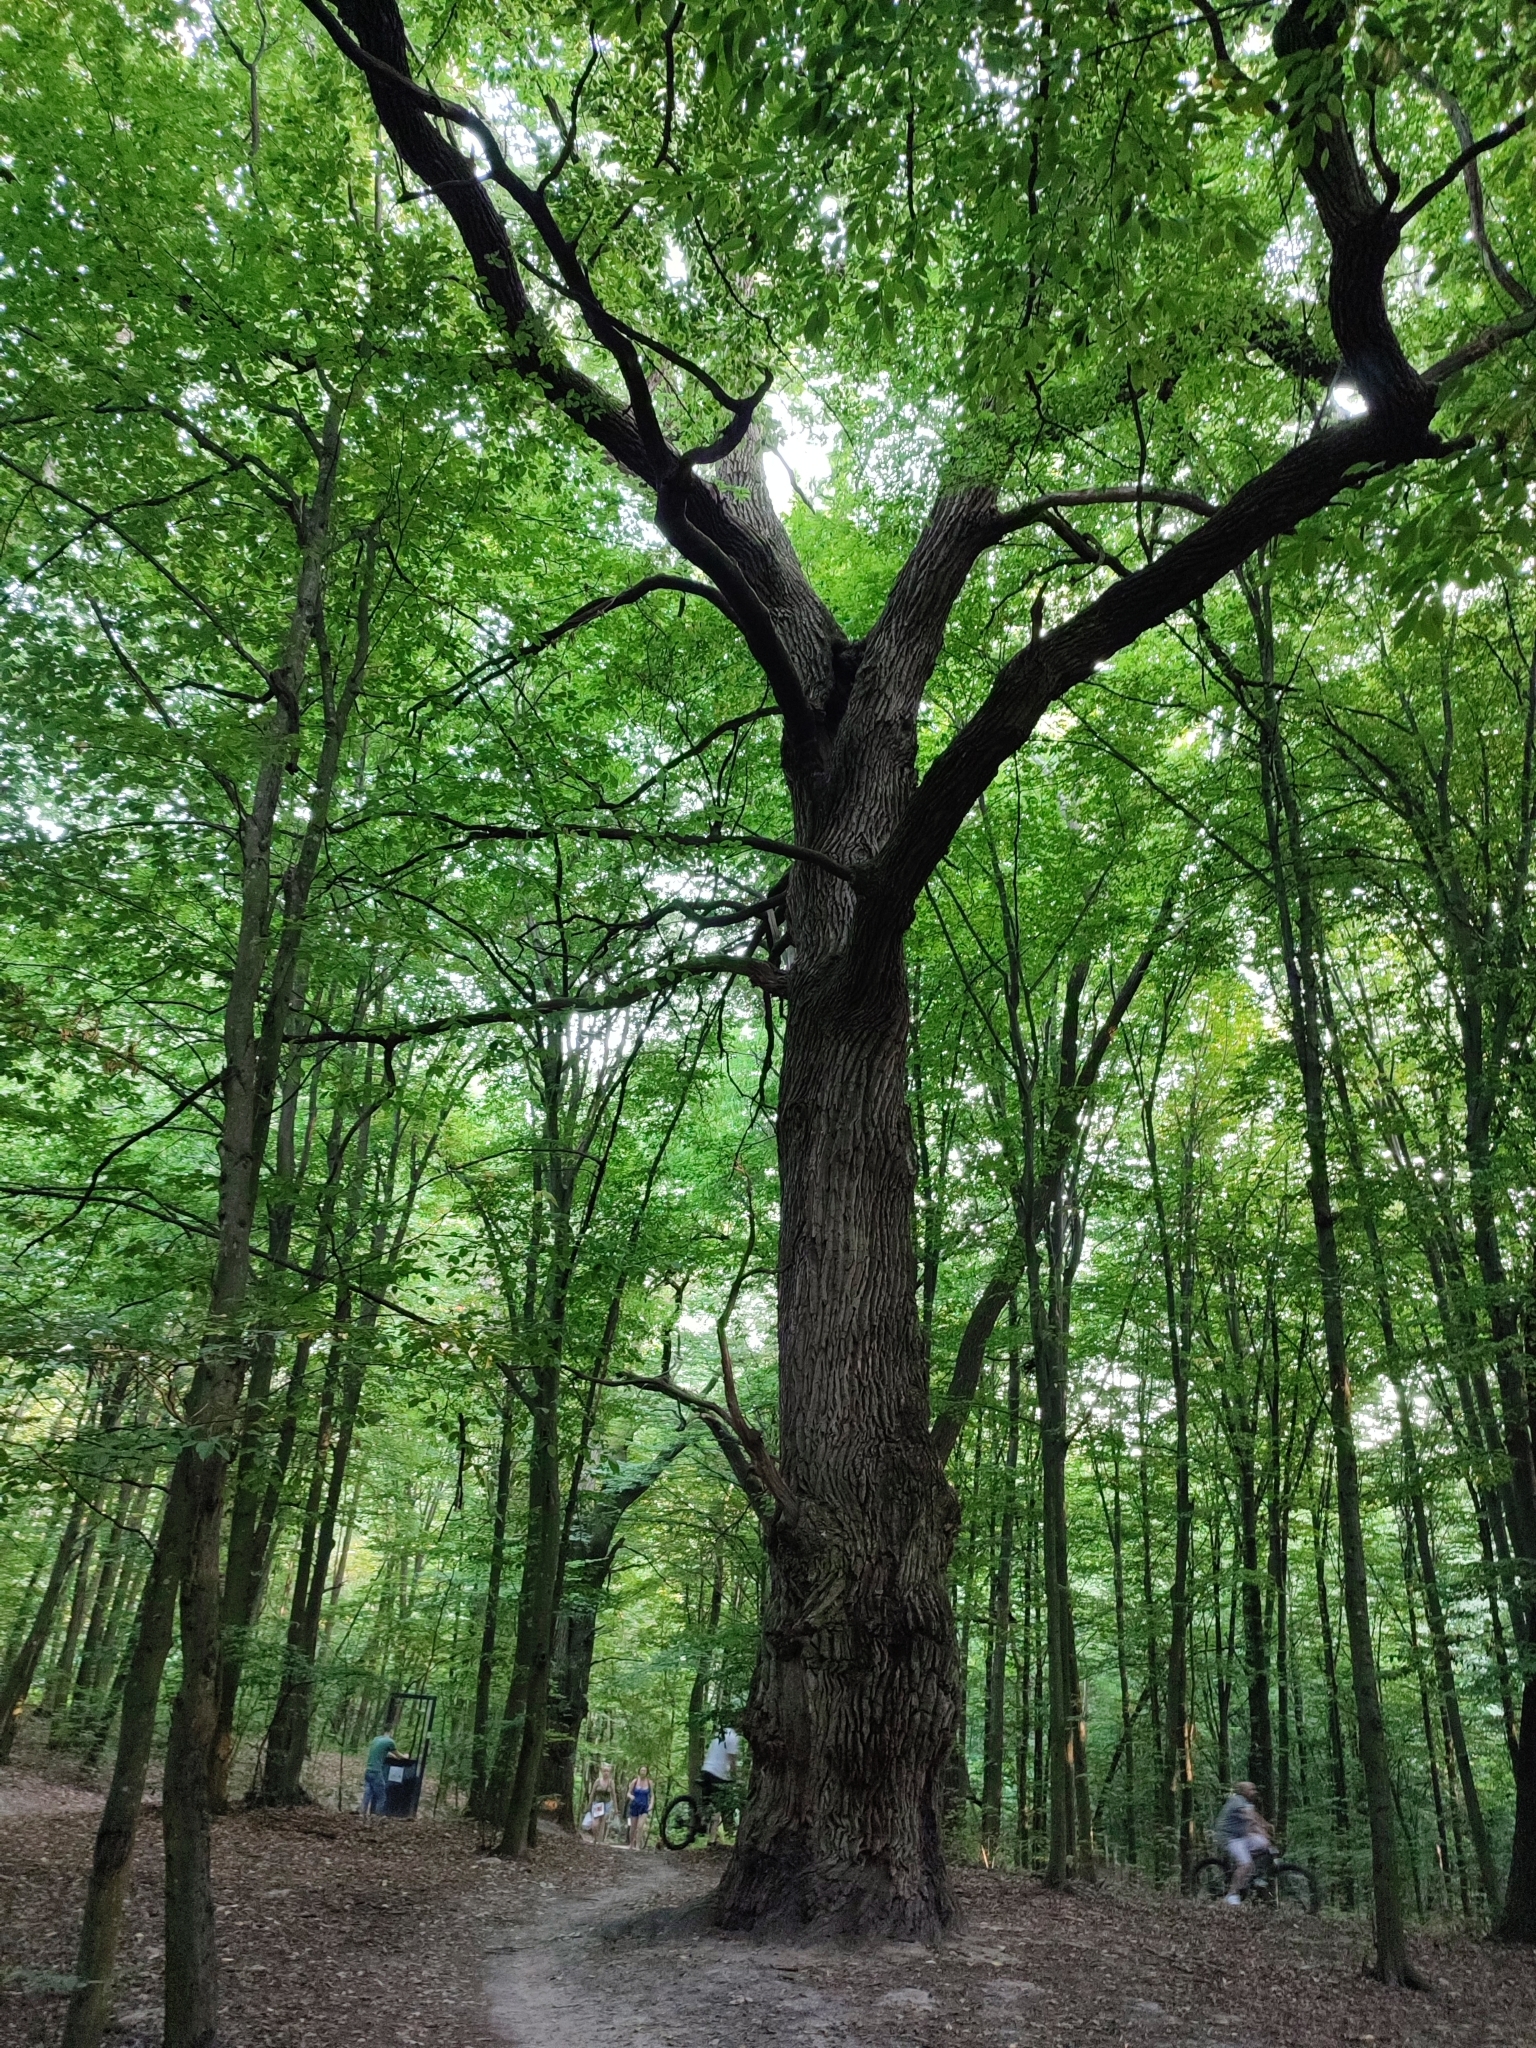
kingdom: Plantae
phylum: Tracheophyta
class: Magnoliopsida
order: Fagales
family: Fagaceae
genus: Quercus
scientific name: Quercus robur
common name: Pedunculate oak
